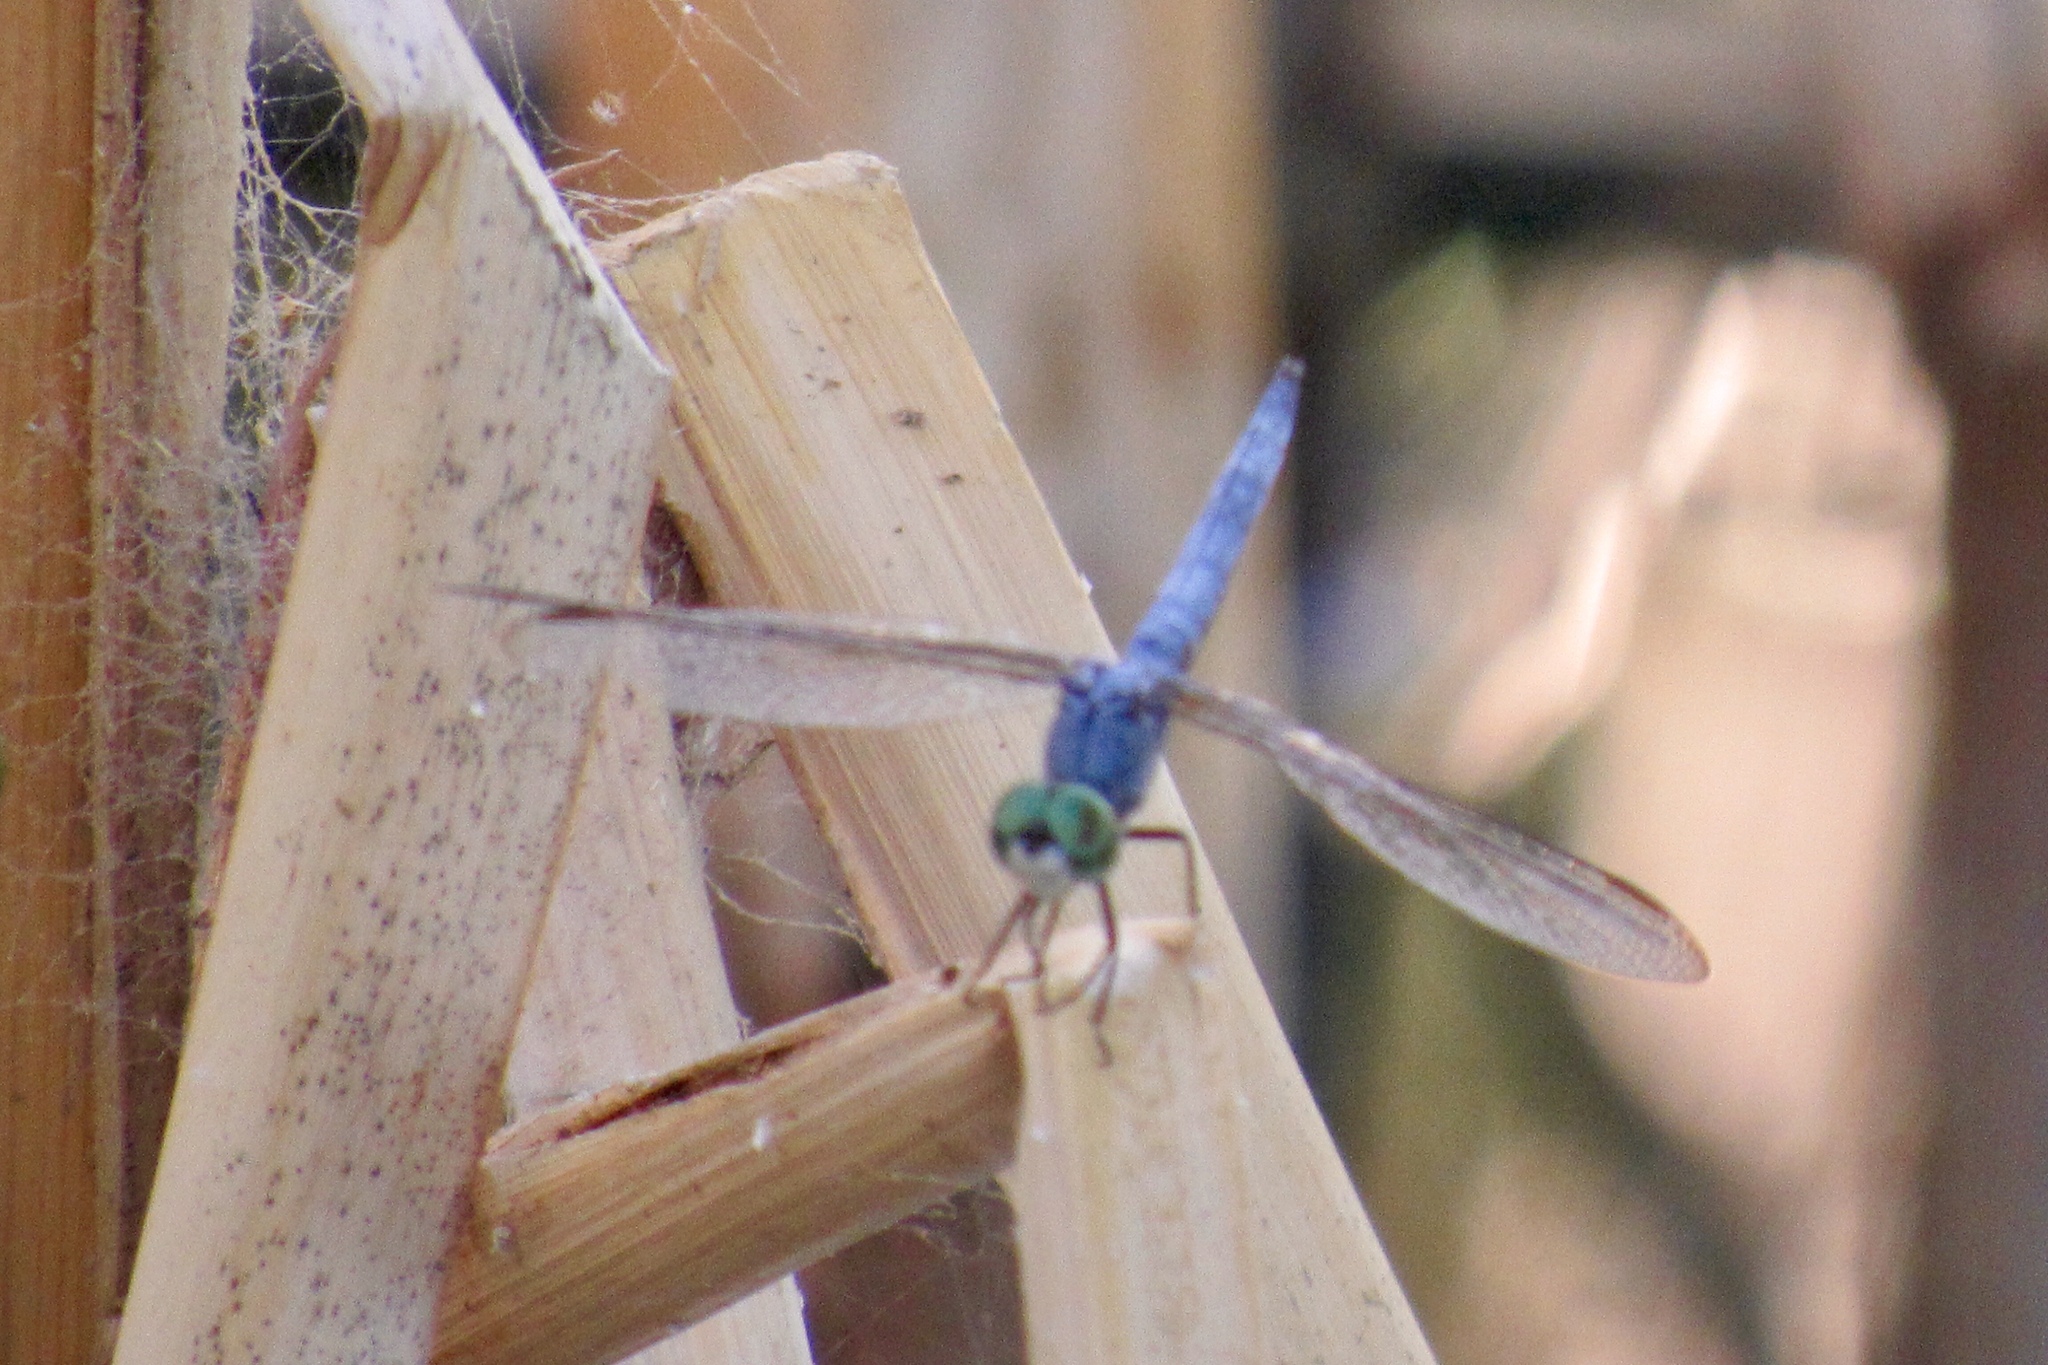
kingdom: Animalia
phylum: Arthropoda
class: Insecta
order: Odonata
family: Libellulidae
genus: Pachydiplax
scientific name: Pachydiplax longipennis
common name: Blue dasher
